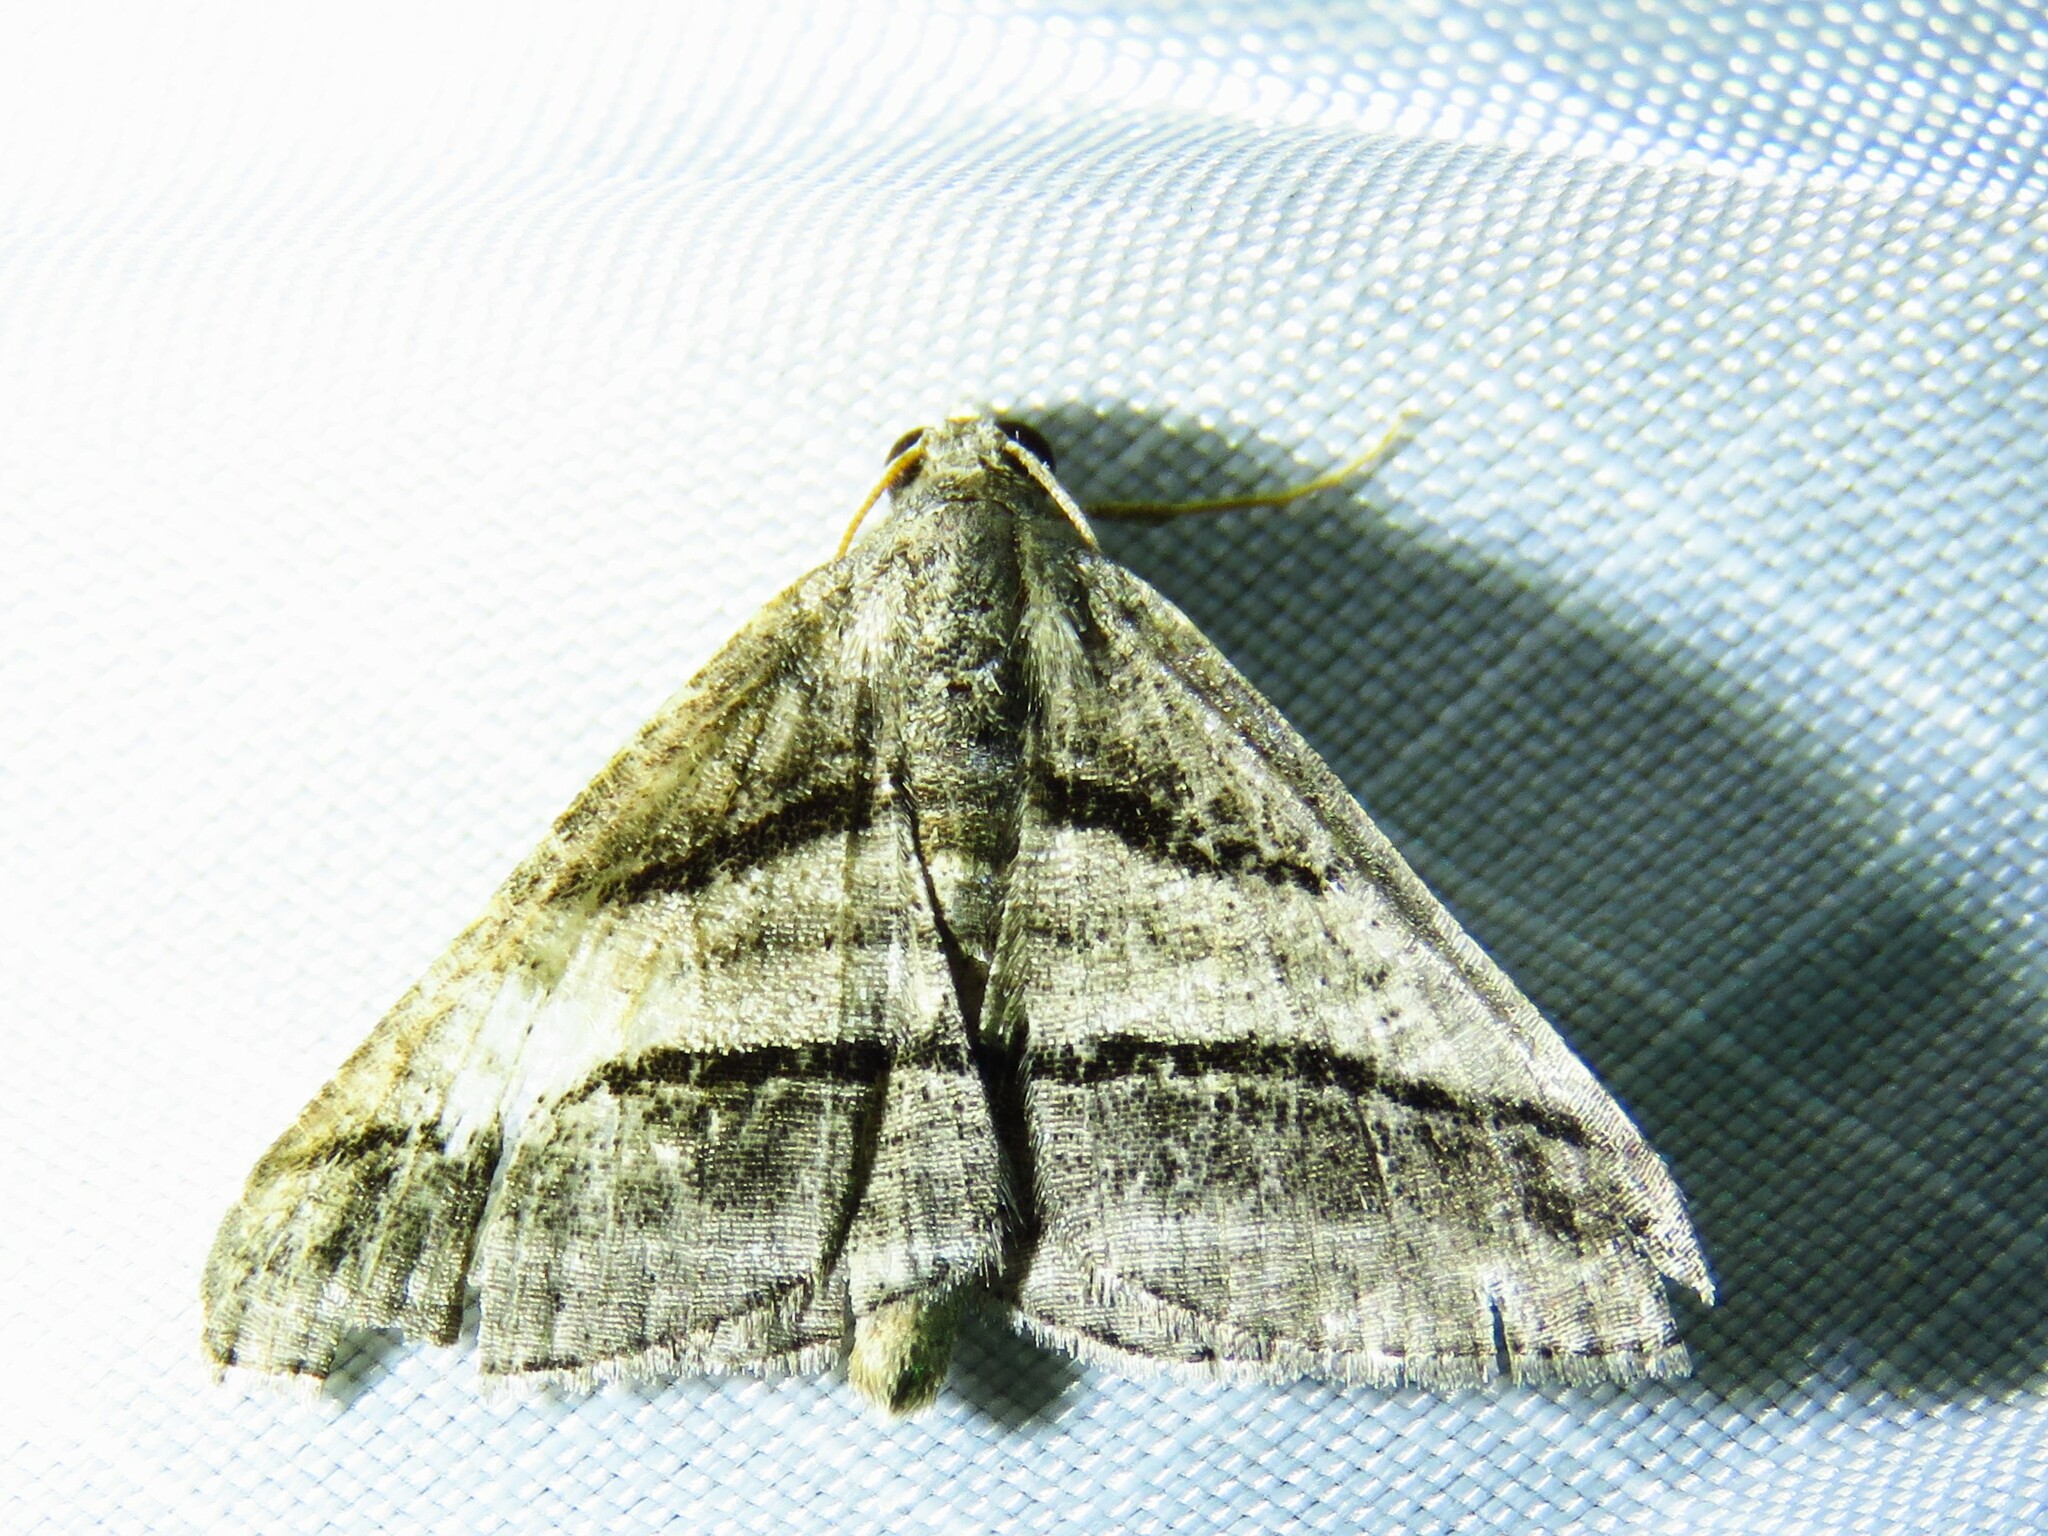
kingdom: Animalia
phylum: Arthropoda
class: Insecta
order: Lepidoptera
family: Geometridae
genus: Digrammia
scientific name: Digrammia atrofasciata
